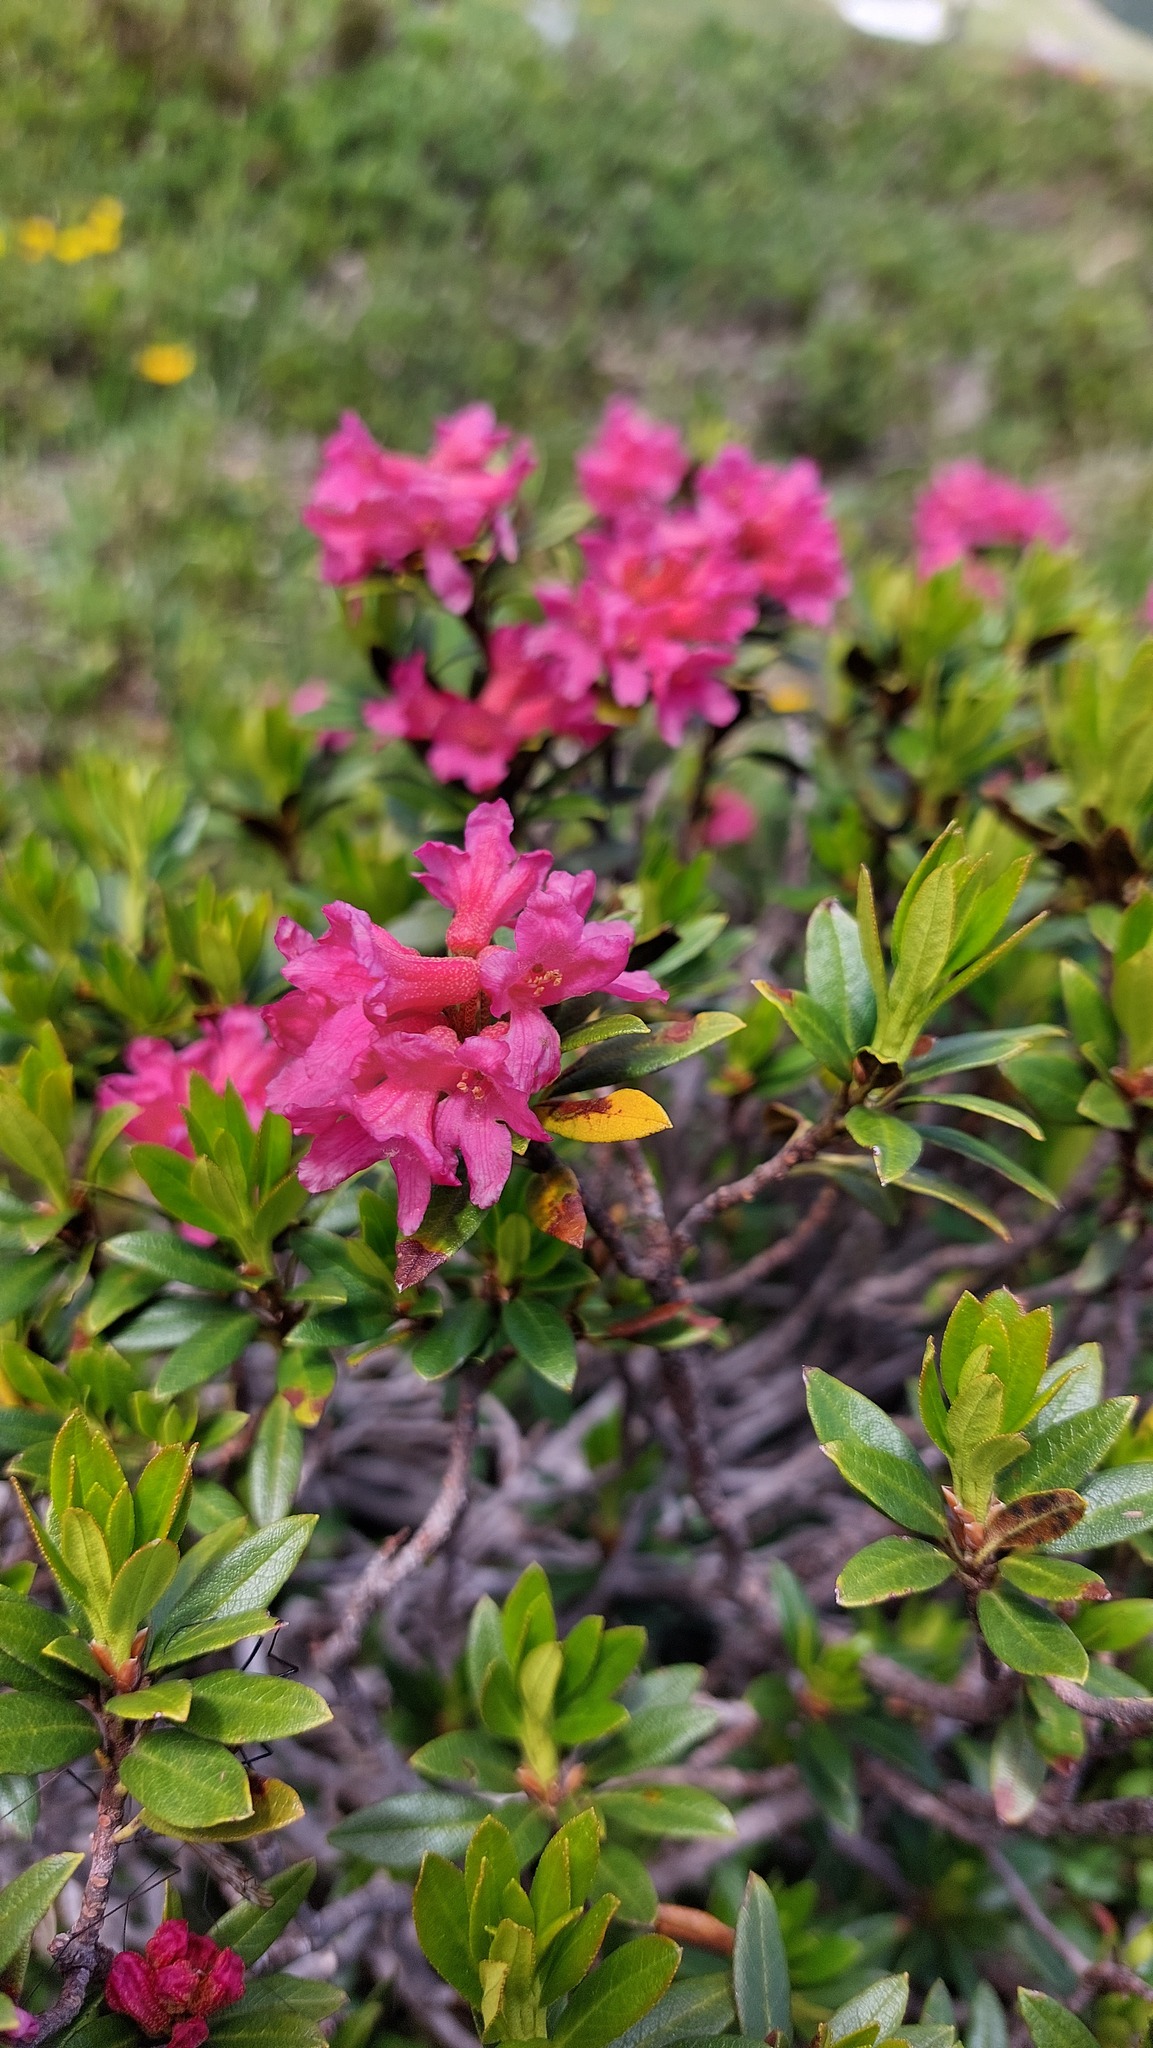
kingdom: Plantae
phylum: Tracheophyta
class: Magnoliopsida
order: Ericales
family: Ericaceae
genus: Rhododendron
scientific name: Rhododendron ferrugineum
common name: Alpenrose
